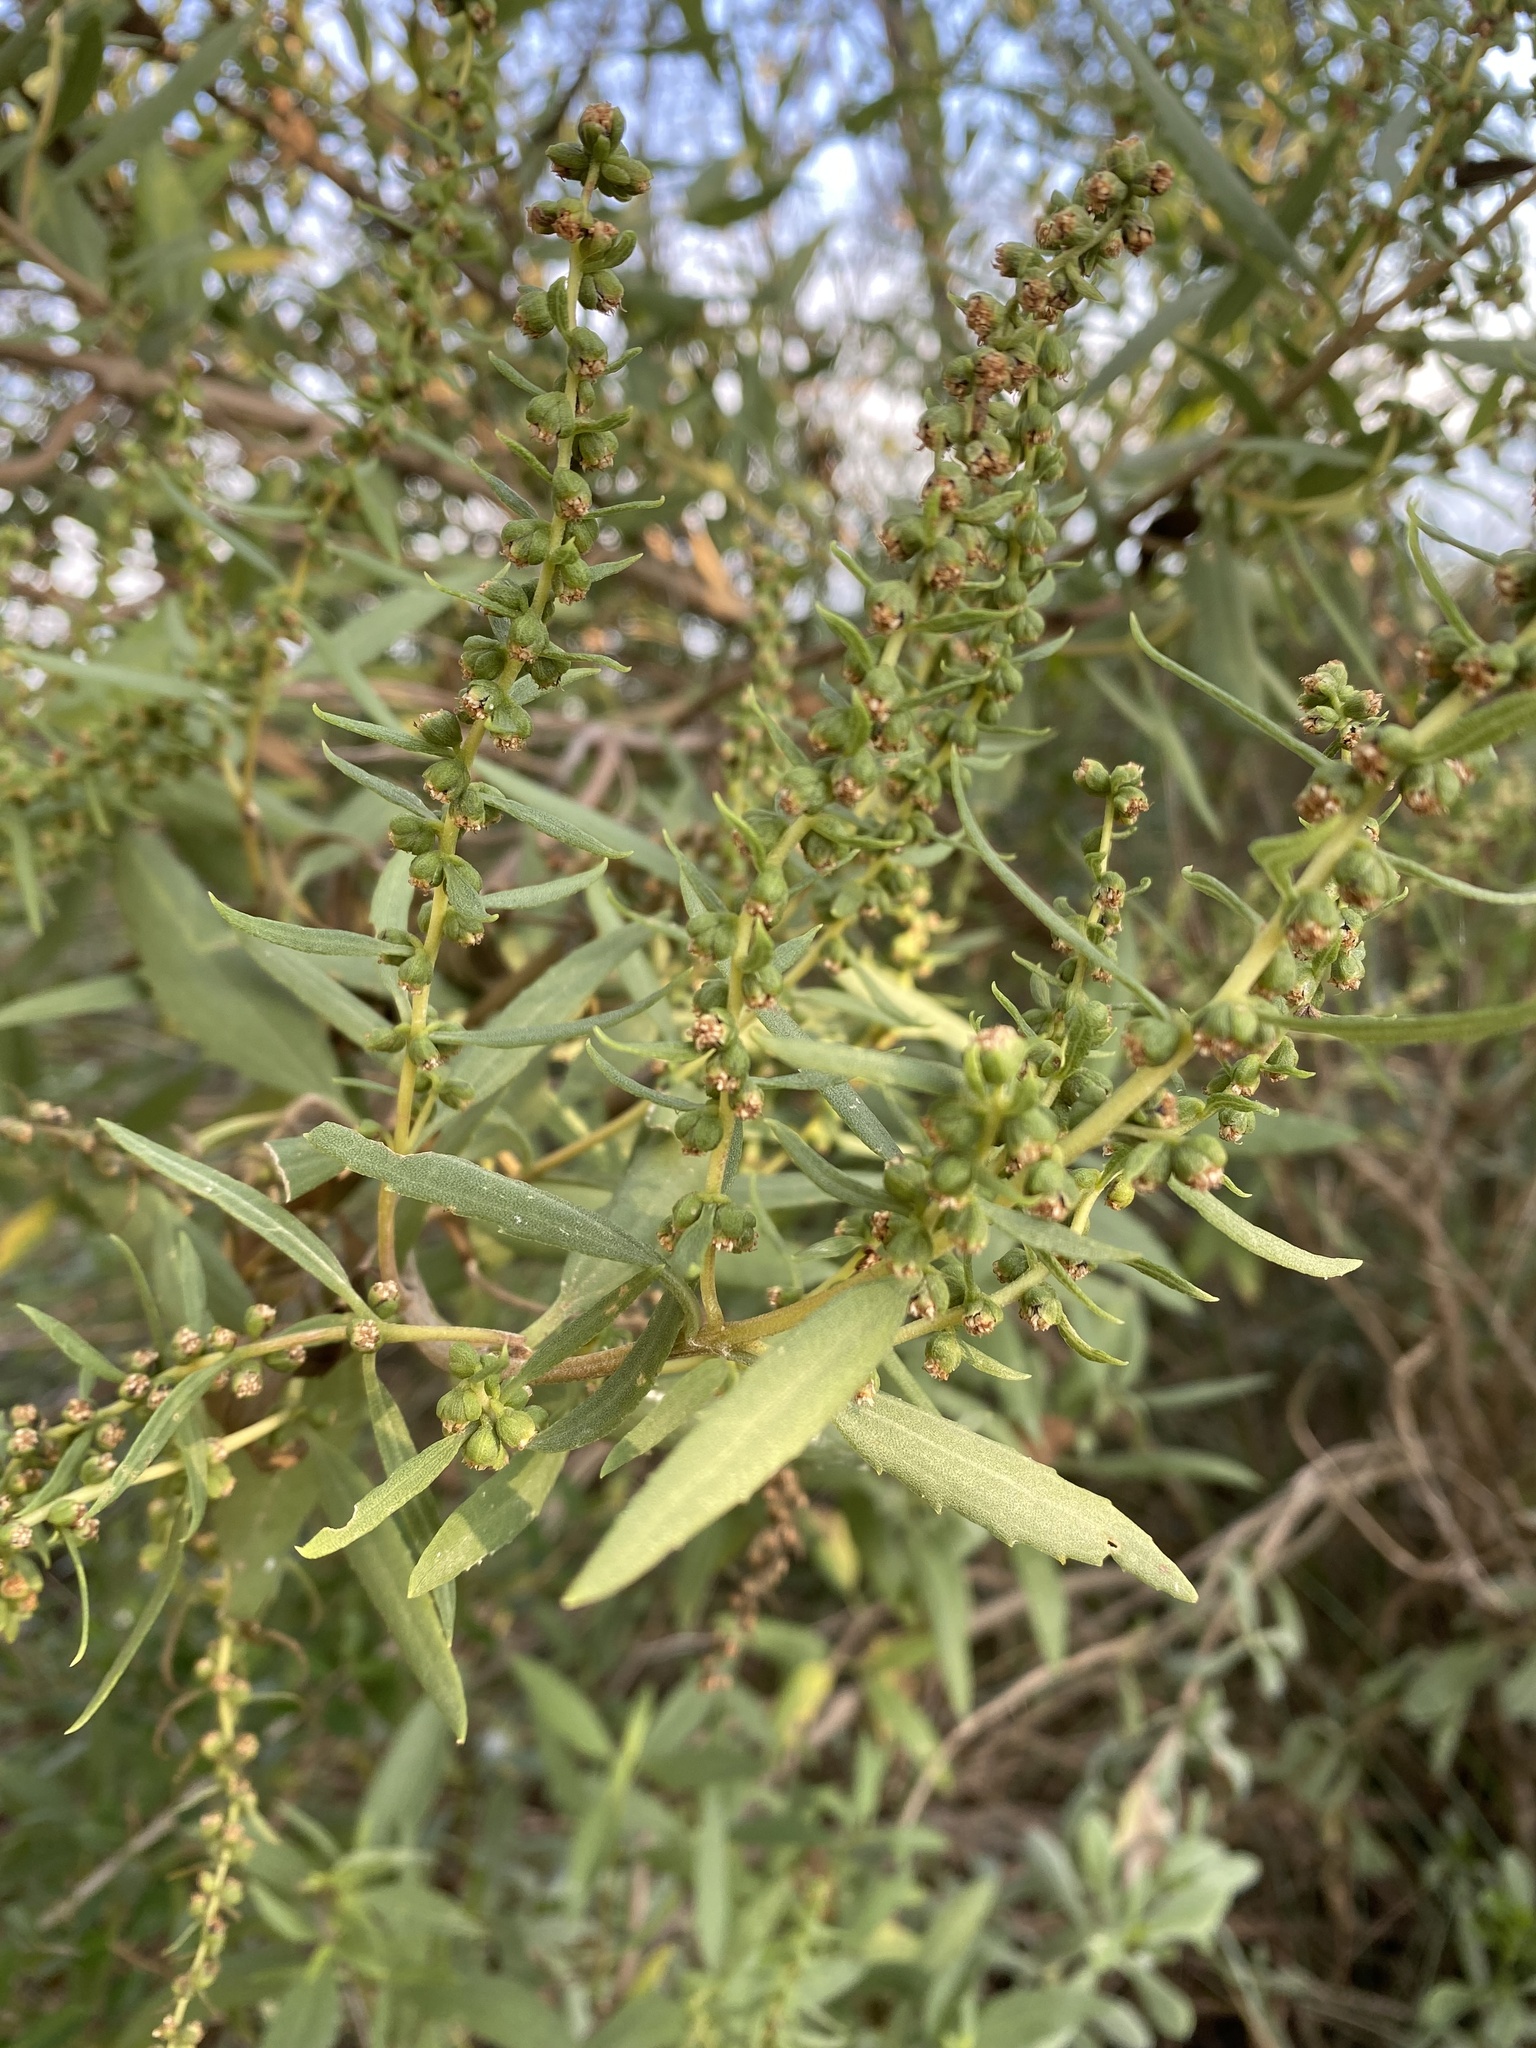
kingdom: Plantae
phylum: Tracheophyta
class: Magnoliopsida
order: Asterales
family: Asteraceae
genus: Iva
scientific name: Iva frutescens
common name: Big-leaved marsh-elder
